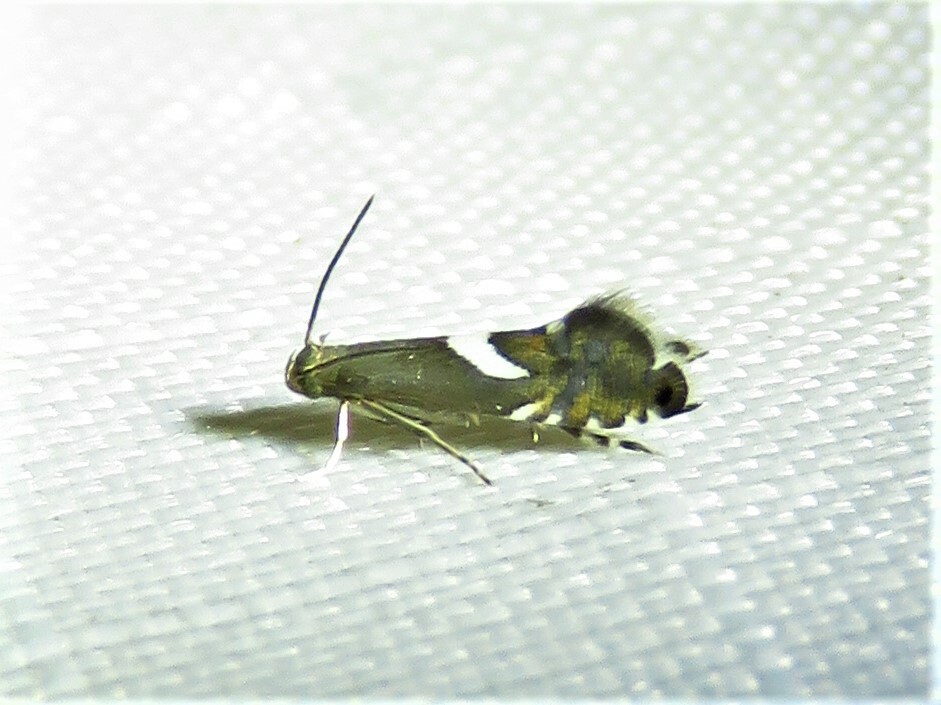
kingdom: Animalia
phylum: Arthropoda
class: Insecta
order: Lepidoptera
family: Glyphipterigidae
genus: Glyphipterix
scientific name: Glyphipterix Diploschizia impigritella
